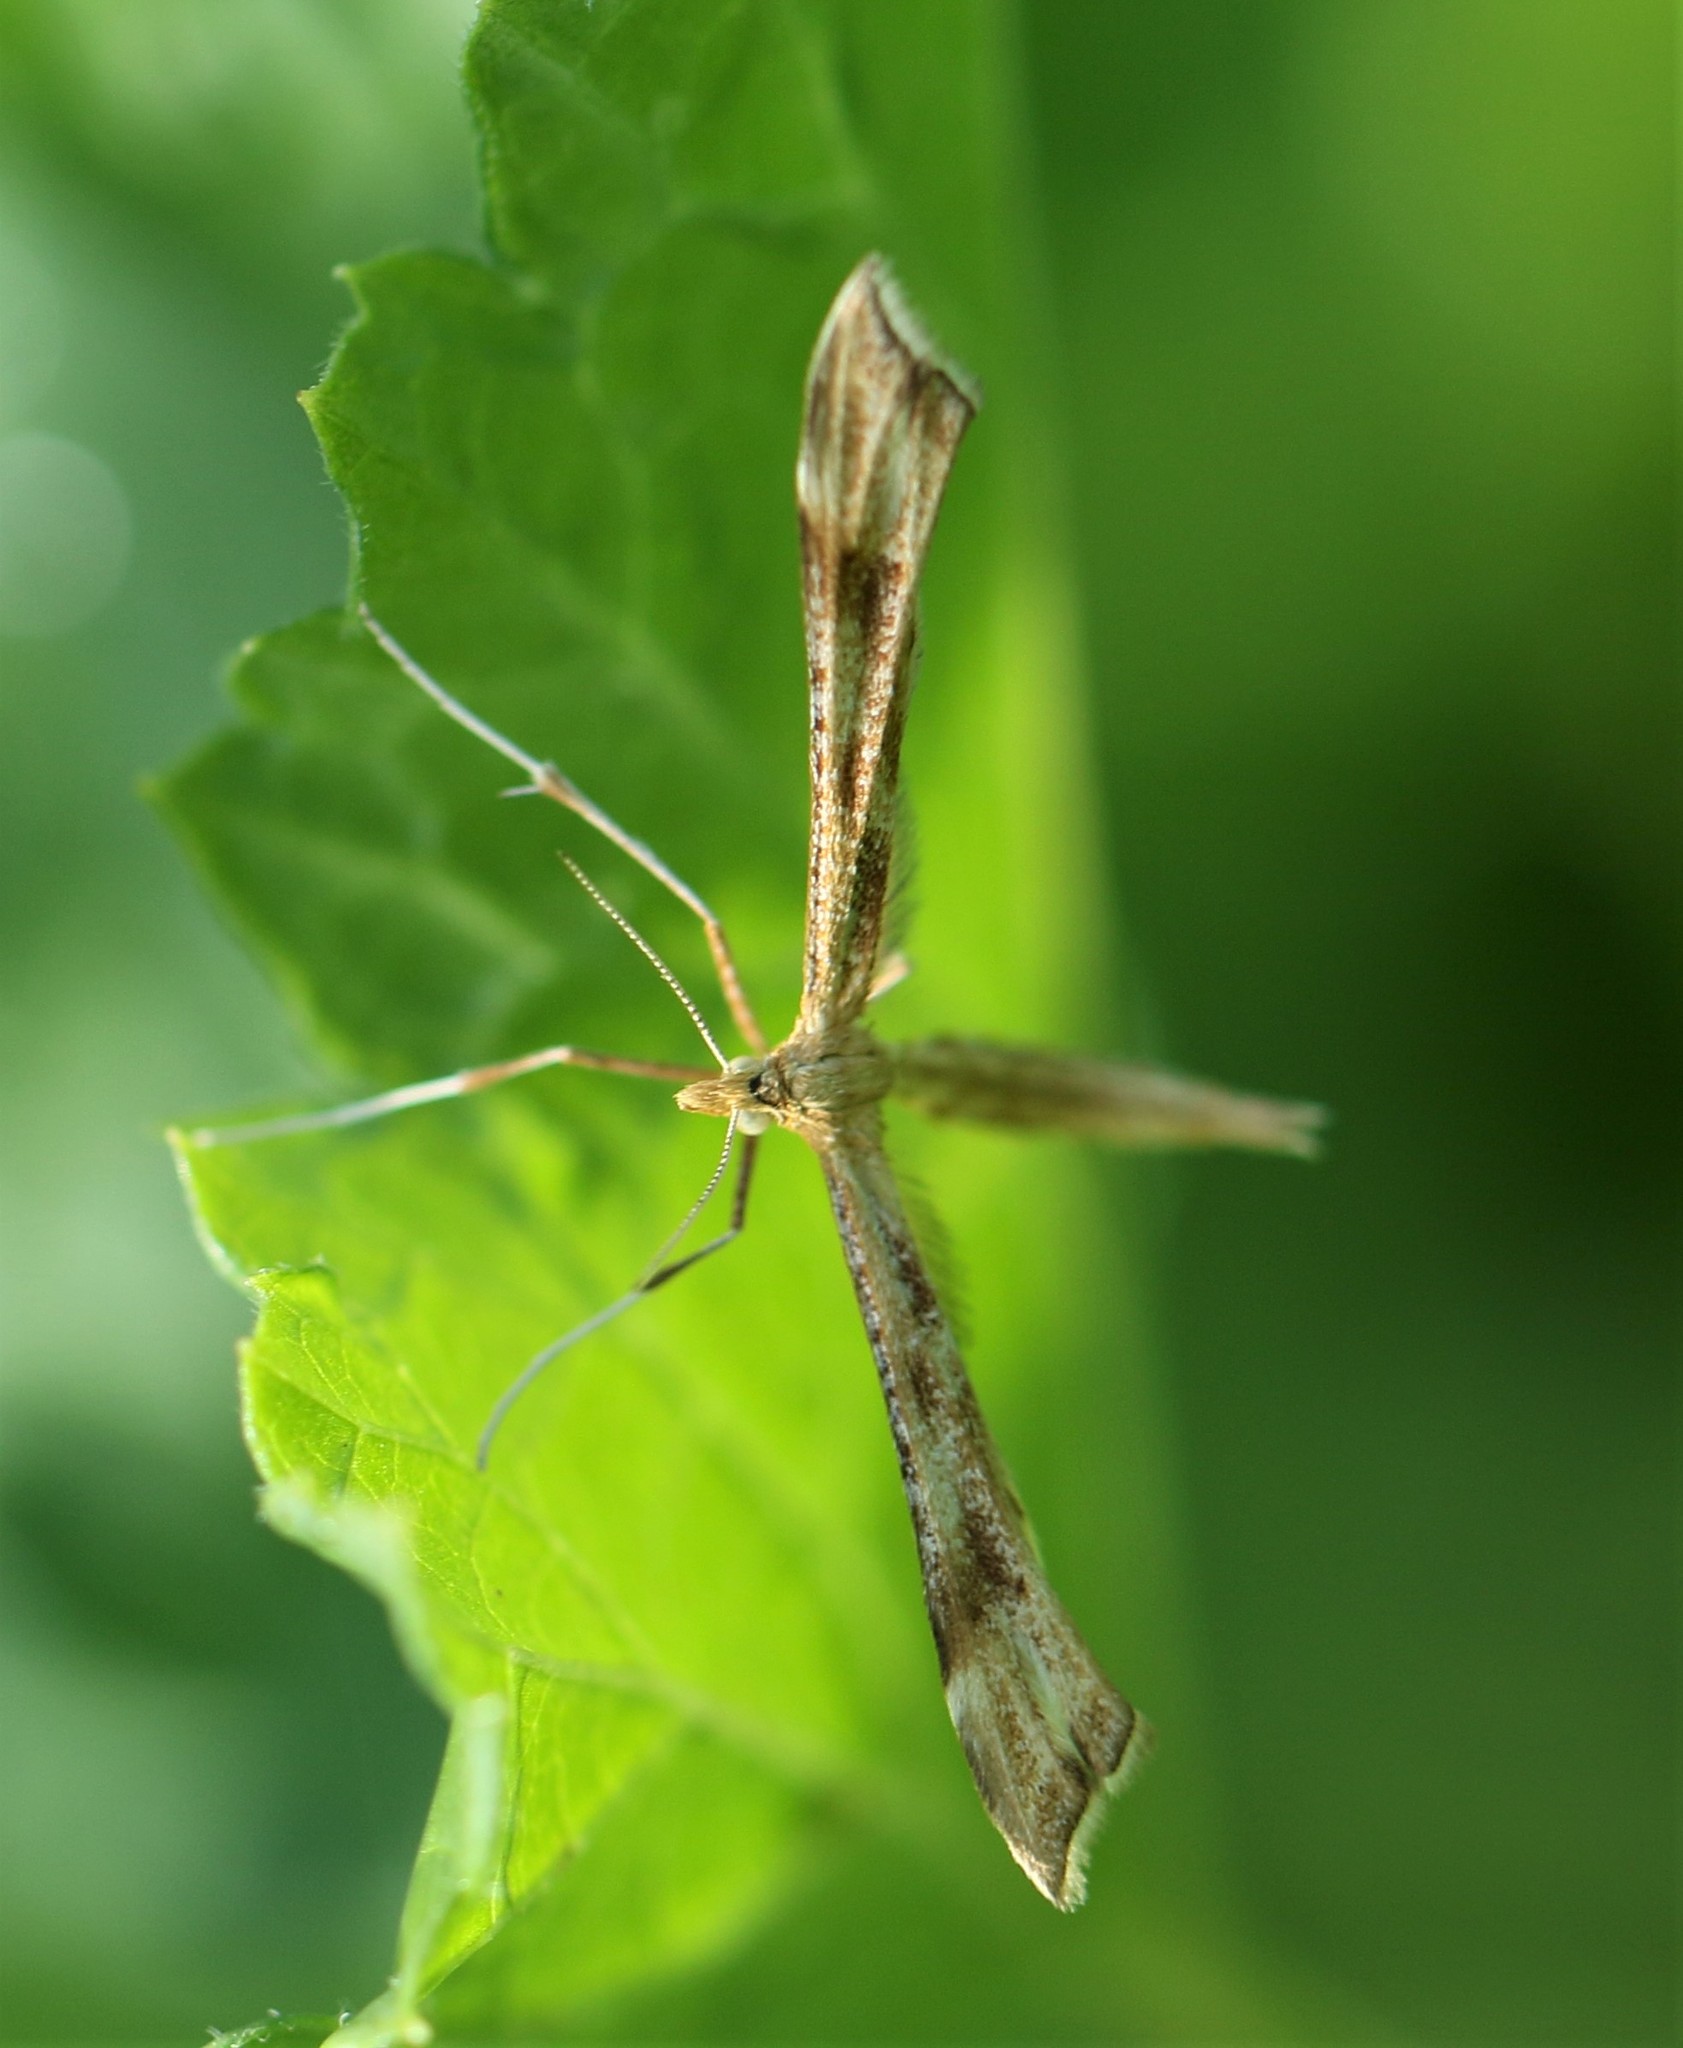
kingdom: Animalia
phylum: Arthropoda
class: Insecta
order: Lepidoptera
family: Pterophoridae
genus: Gillmeria
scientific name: Gillmeria pallidactyla
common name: Yarrow plume
